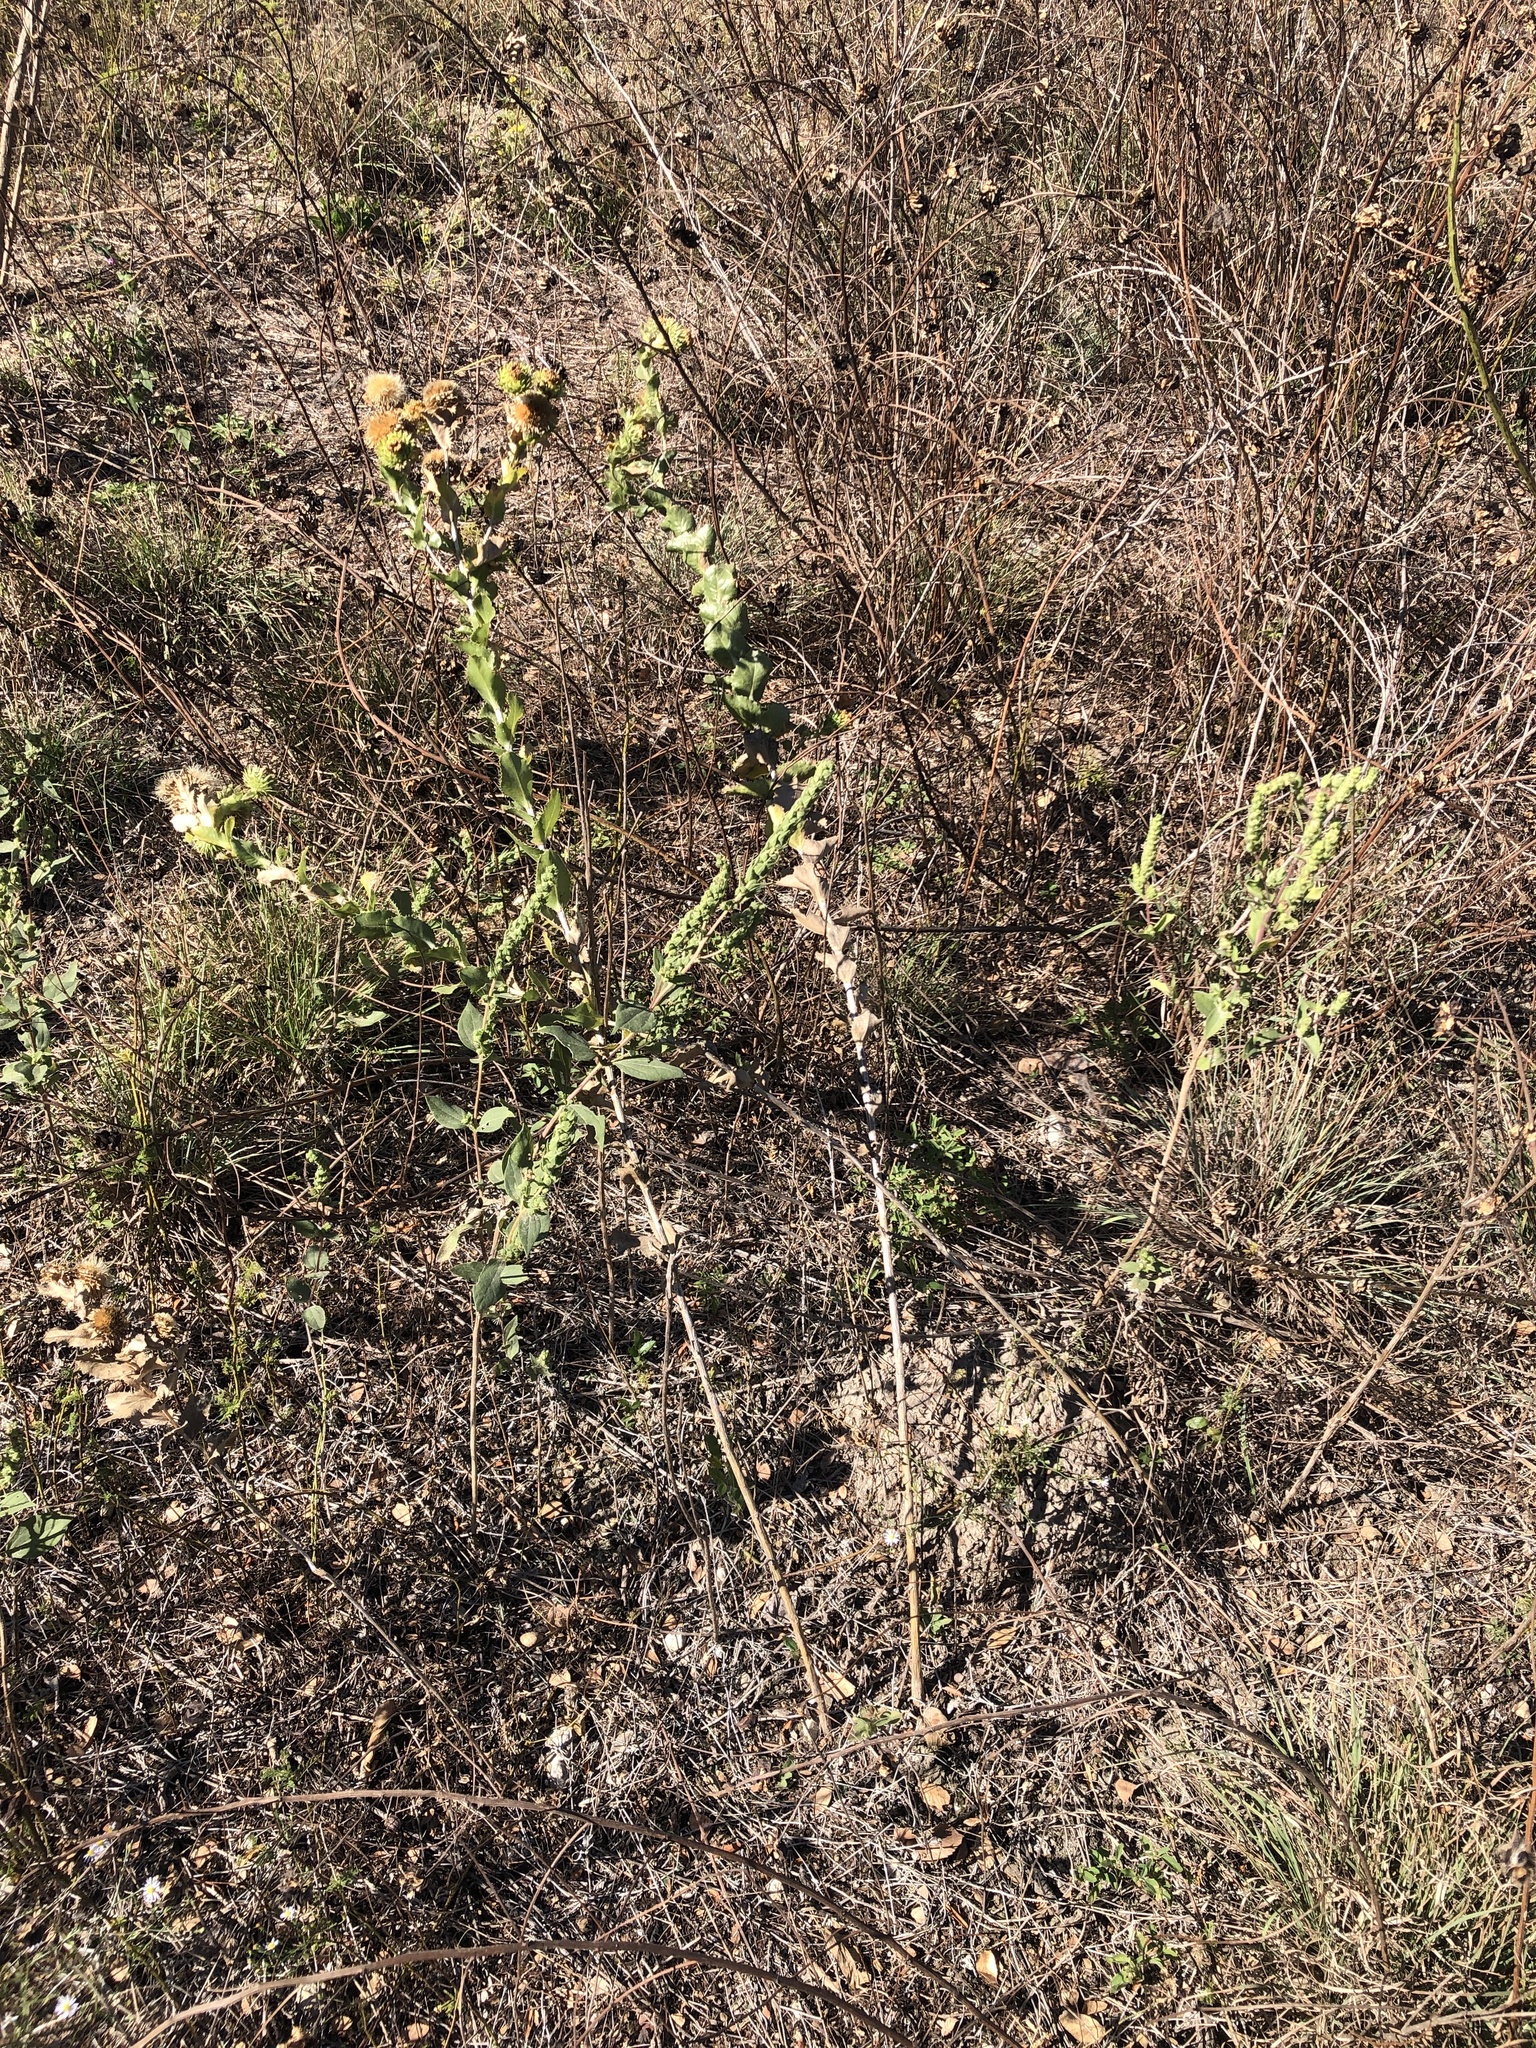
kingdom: Plantae
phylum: Tracheophyta
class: Magnoliopsida
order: Asterales
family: Asteraceae
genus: Grindelia
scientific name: Grindelia ciliata
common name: Goldenweed
